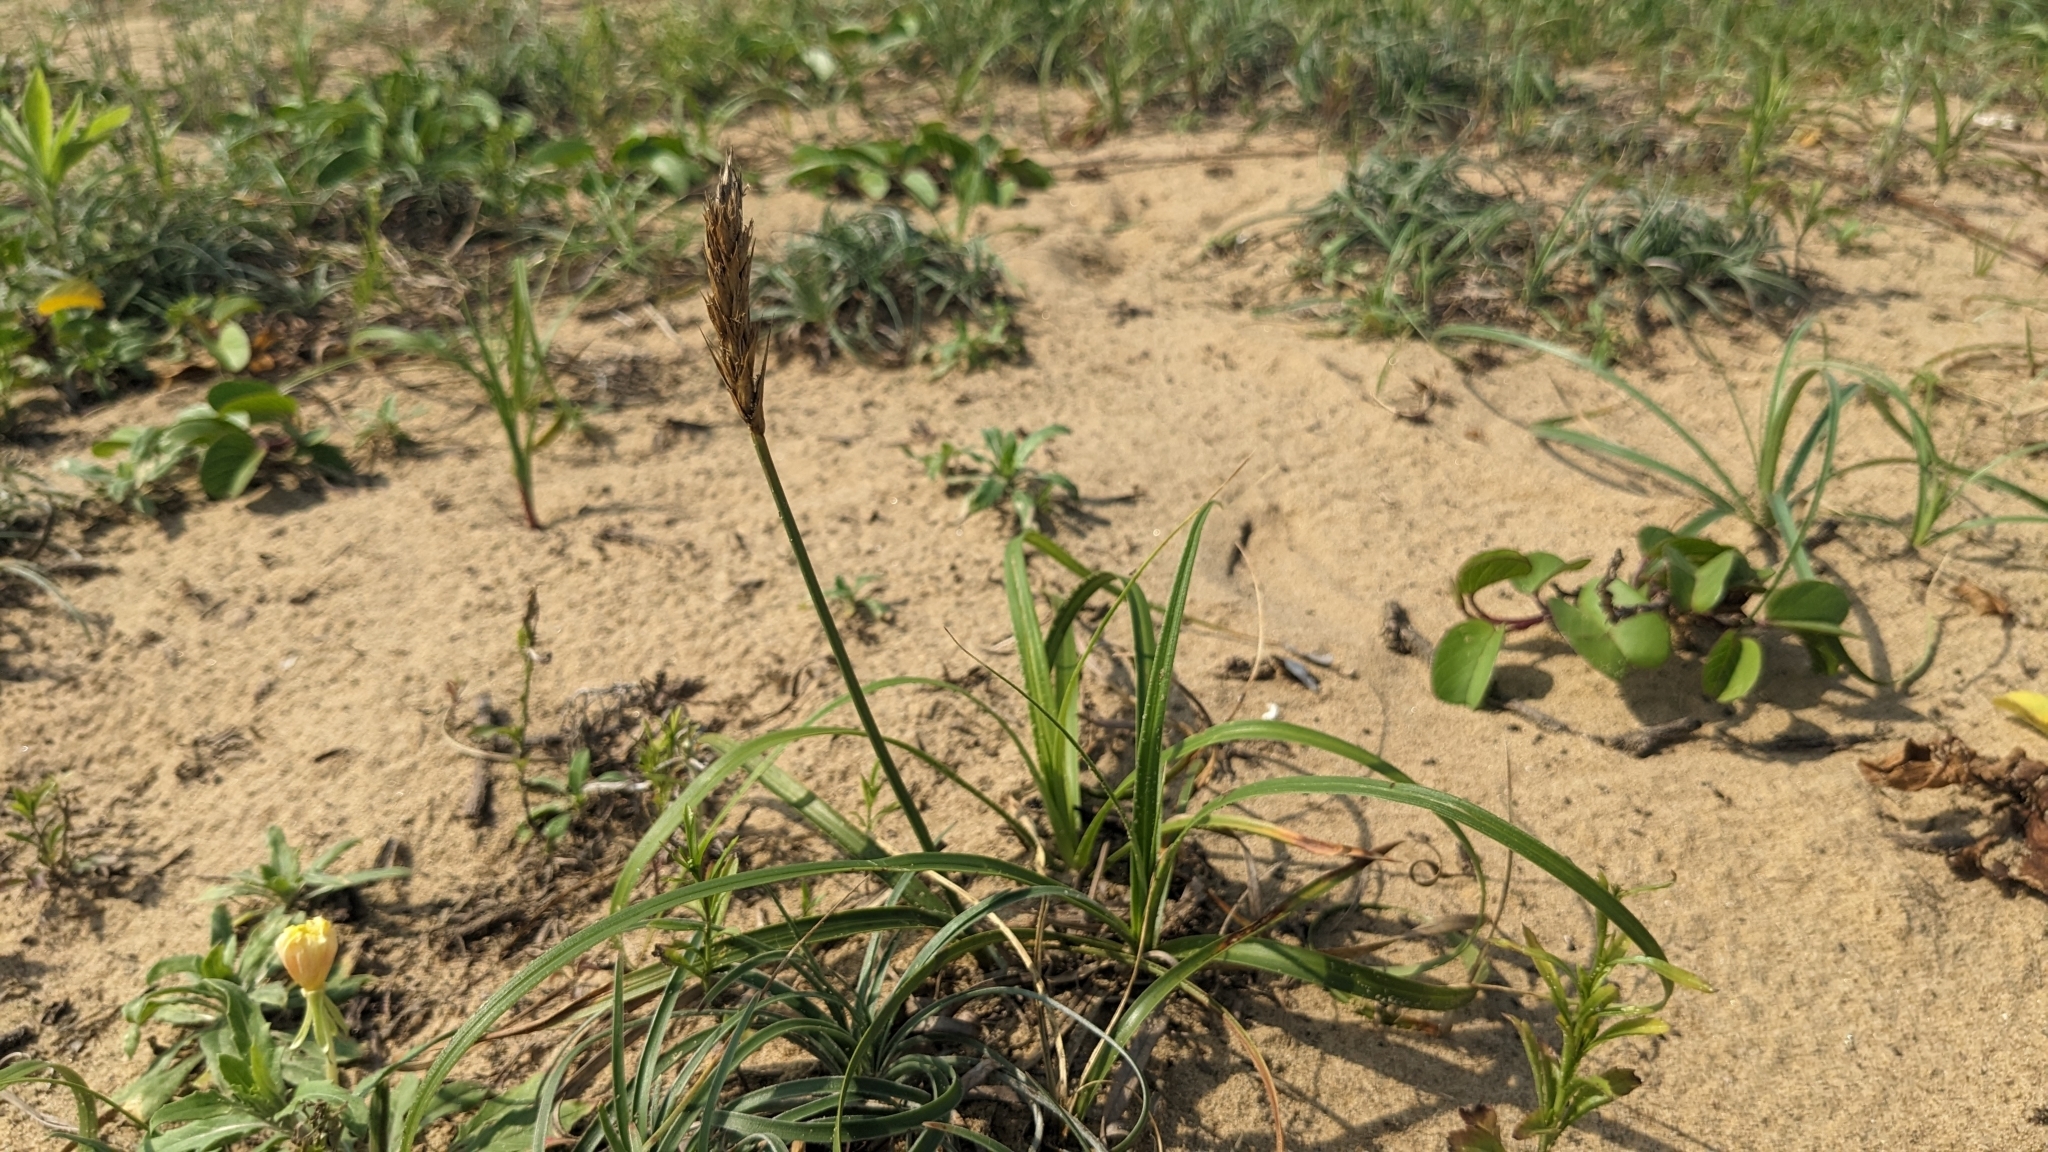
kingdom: Plantae
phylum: Tracheophyta
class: Liliopsida
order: Poales
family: Cyperaceae
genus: Carex
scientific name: Carex kobomugi
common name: Japanese sedge
